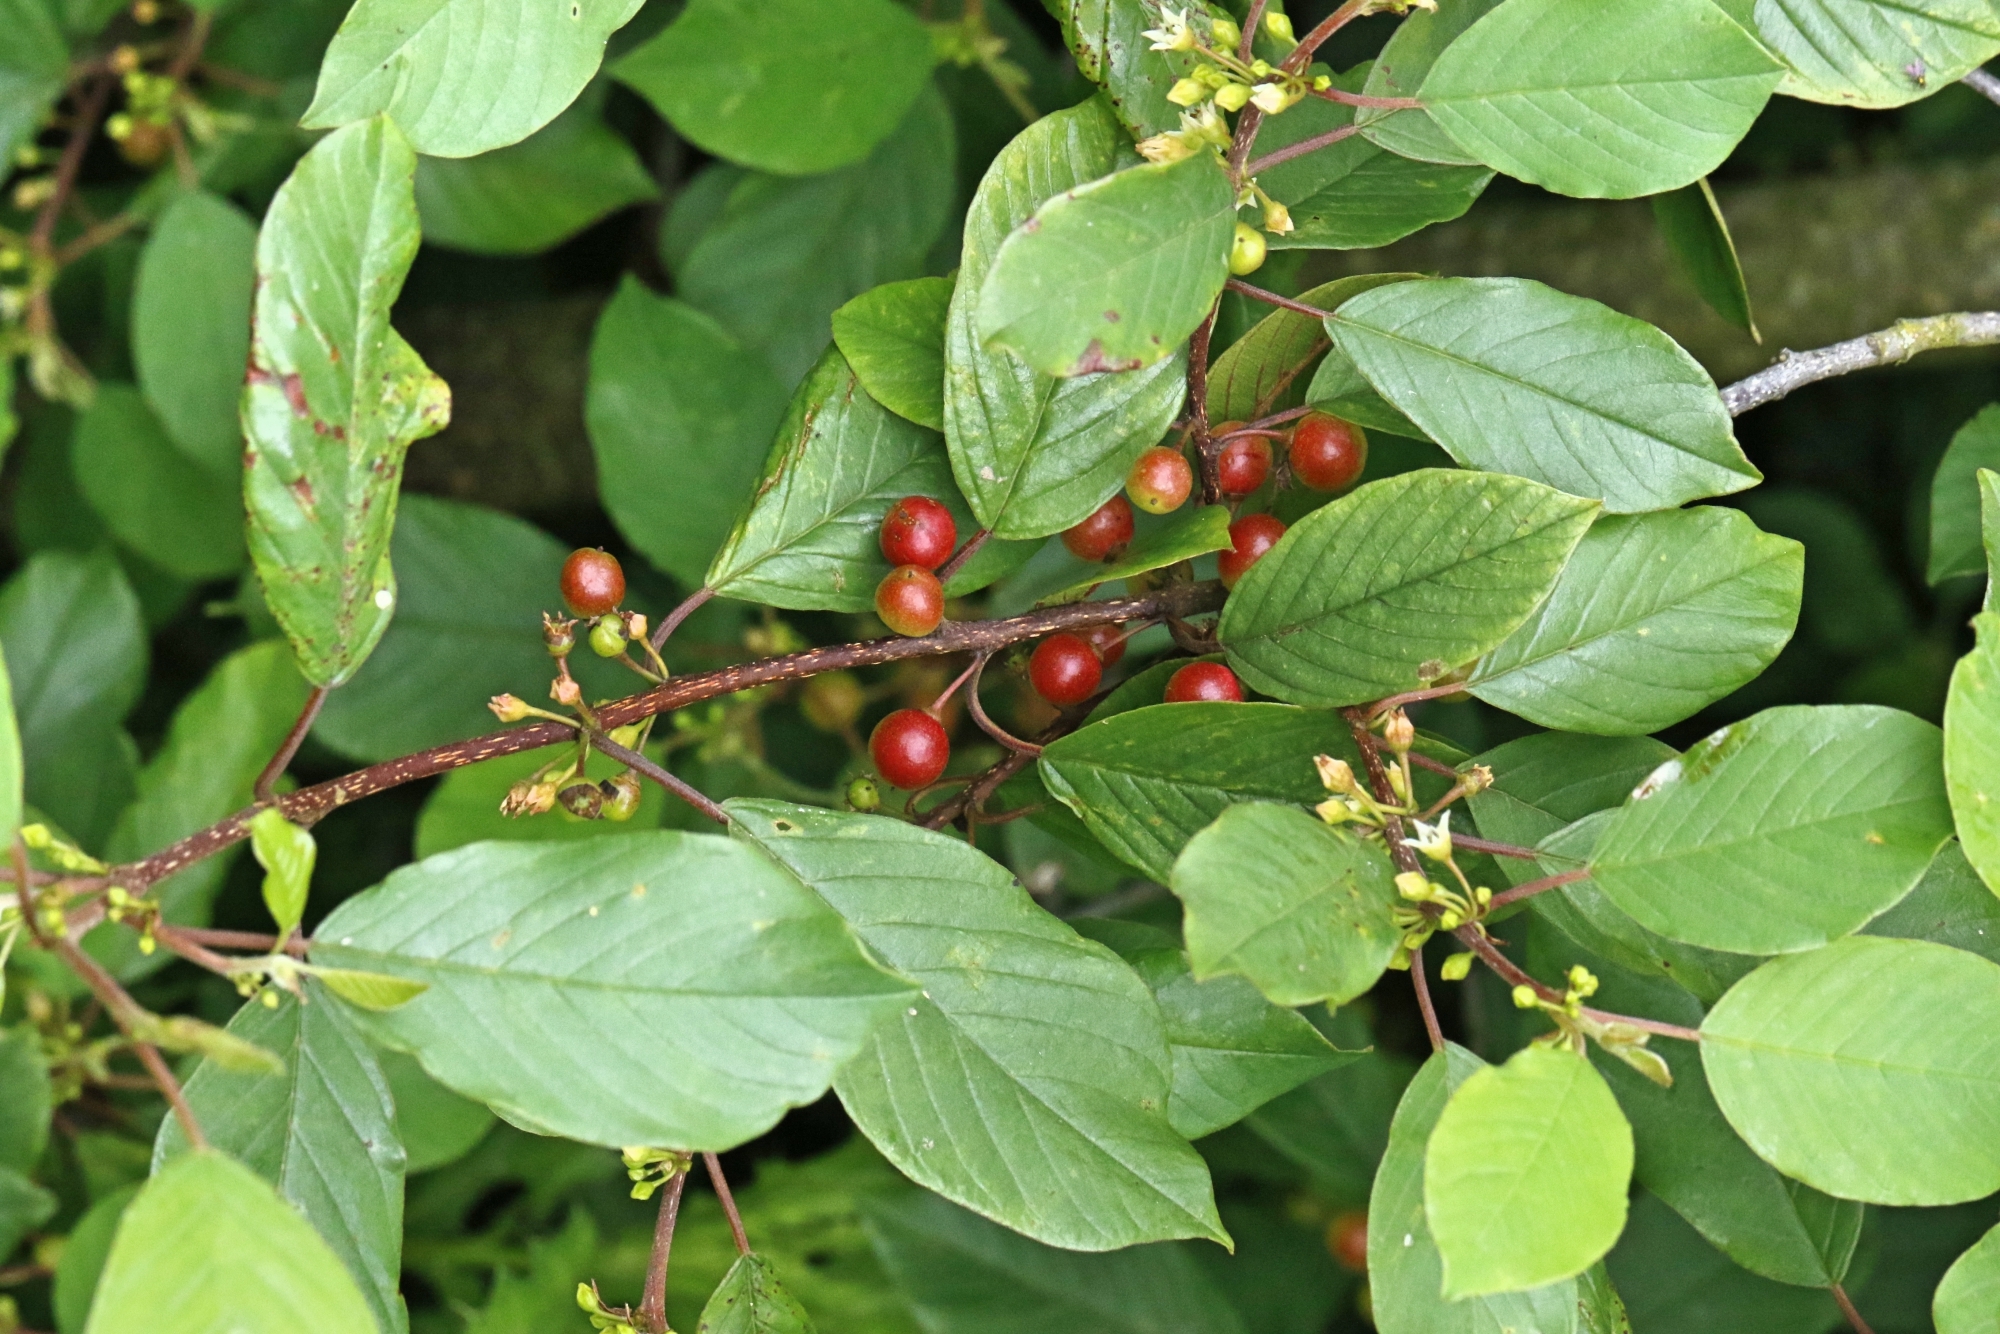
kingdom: Plantae
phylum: Tracheophyta
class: Magnoliopsida
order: Rosales
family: Rhamnaceae
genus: Frangula
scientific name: Frangula alnus
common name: Alder buckthorn
